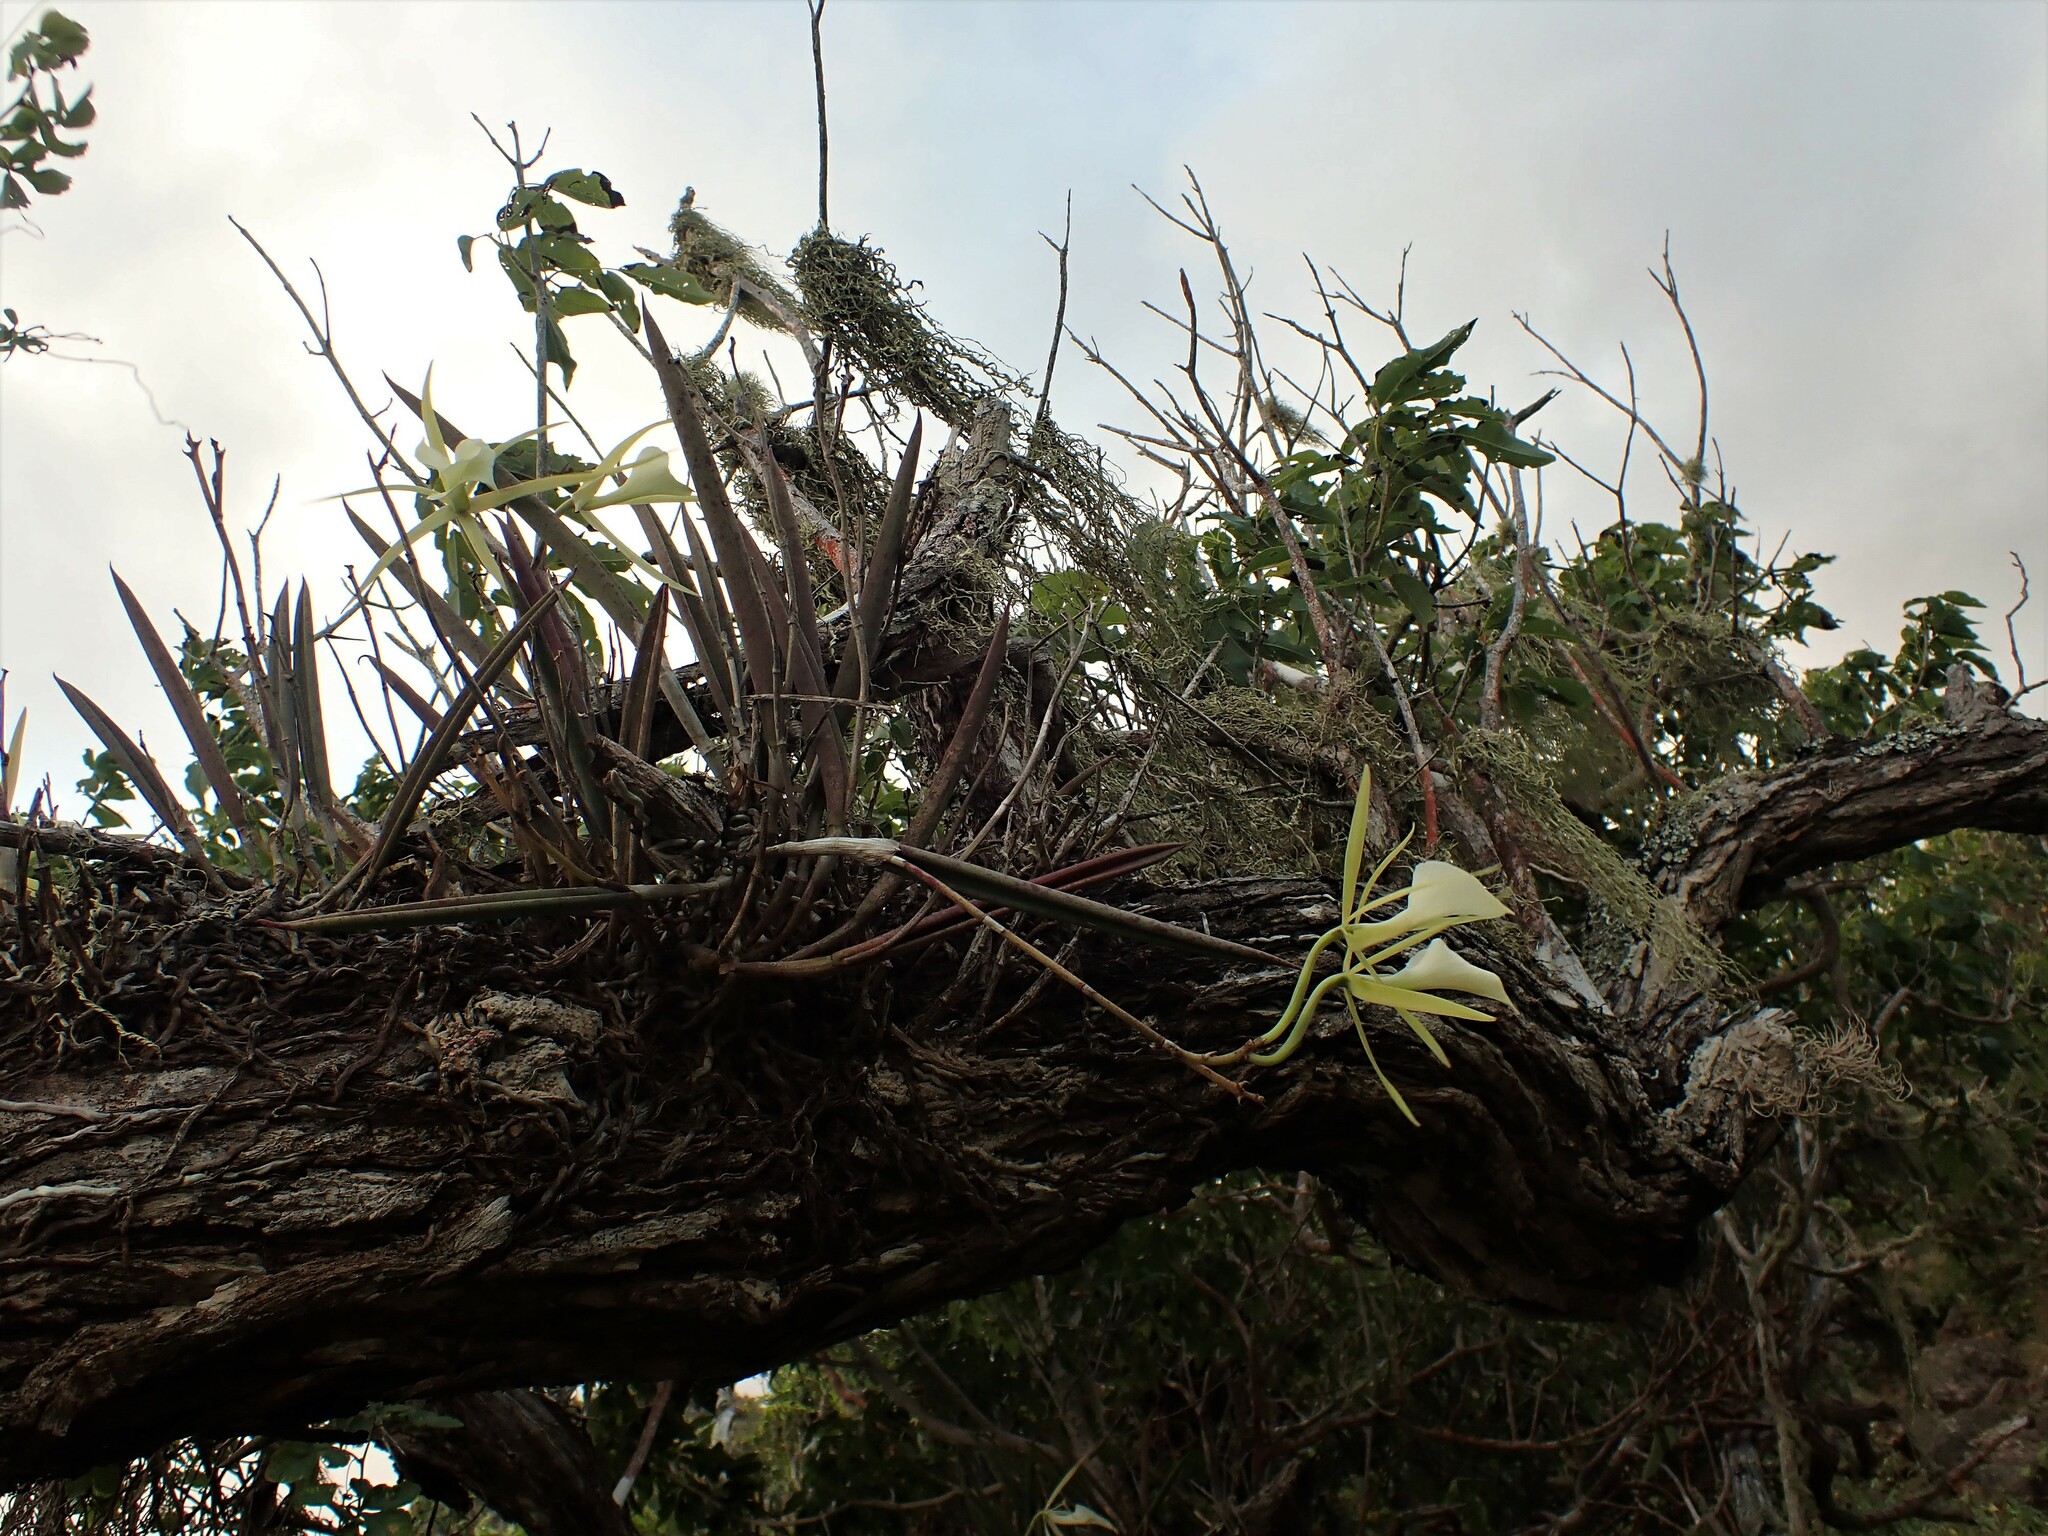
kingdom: Plantae
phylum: Tracheophyta
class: Liliopsida
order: Asparagales
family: Orchidaceae
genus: Brassavola
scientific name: Brassavola nodosa
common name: Lady of the night
